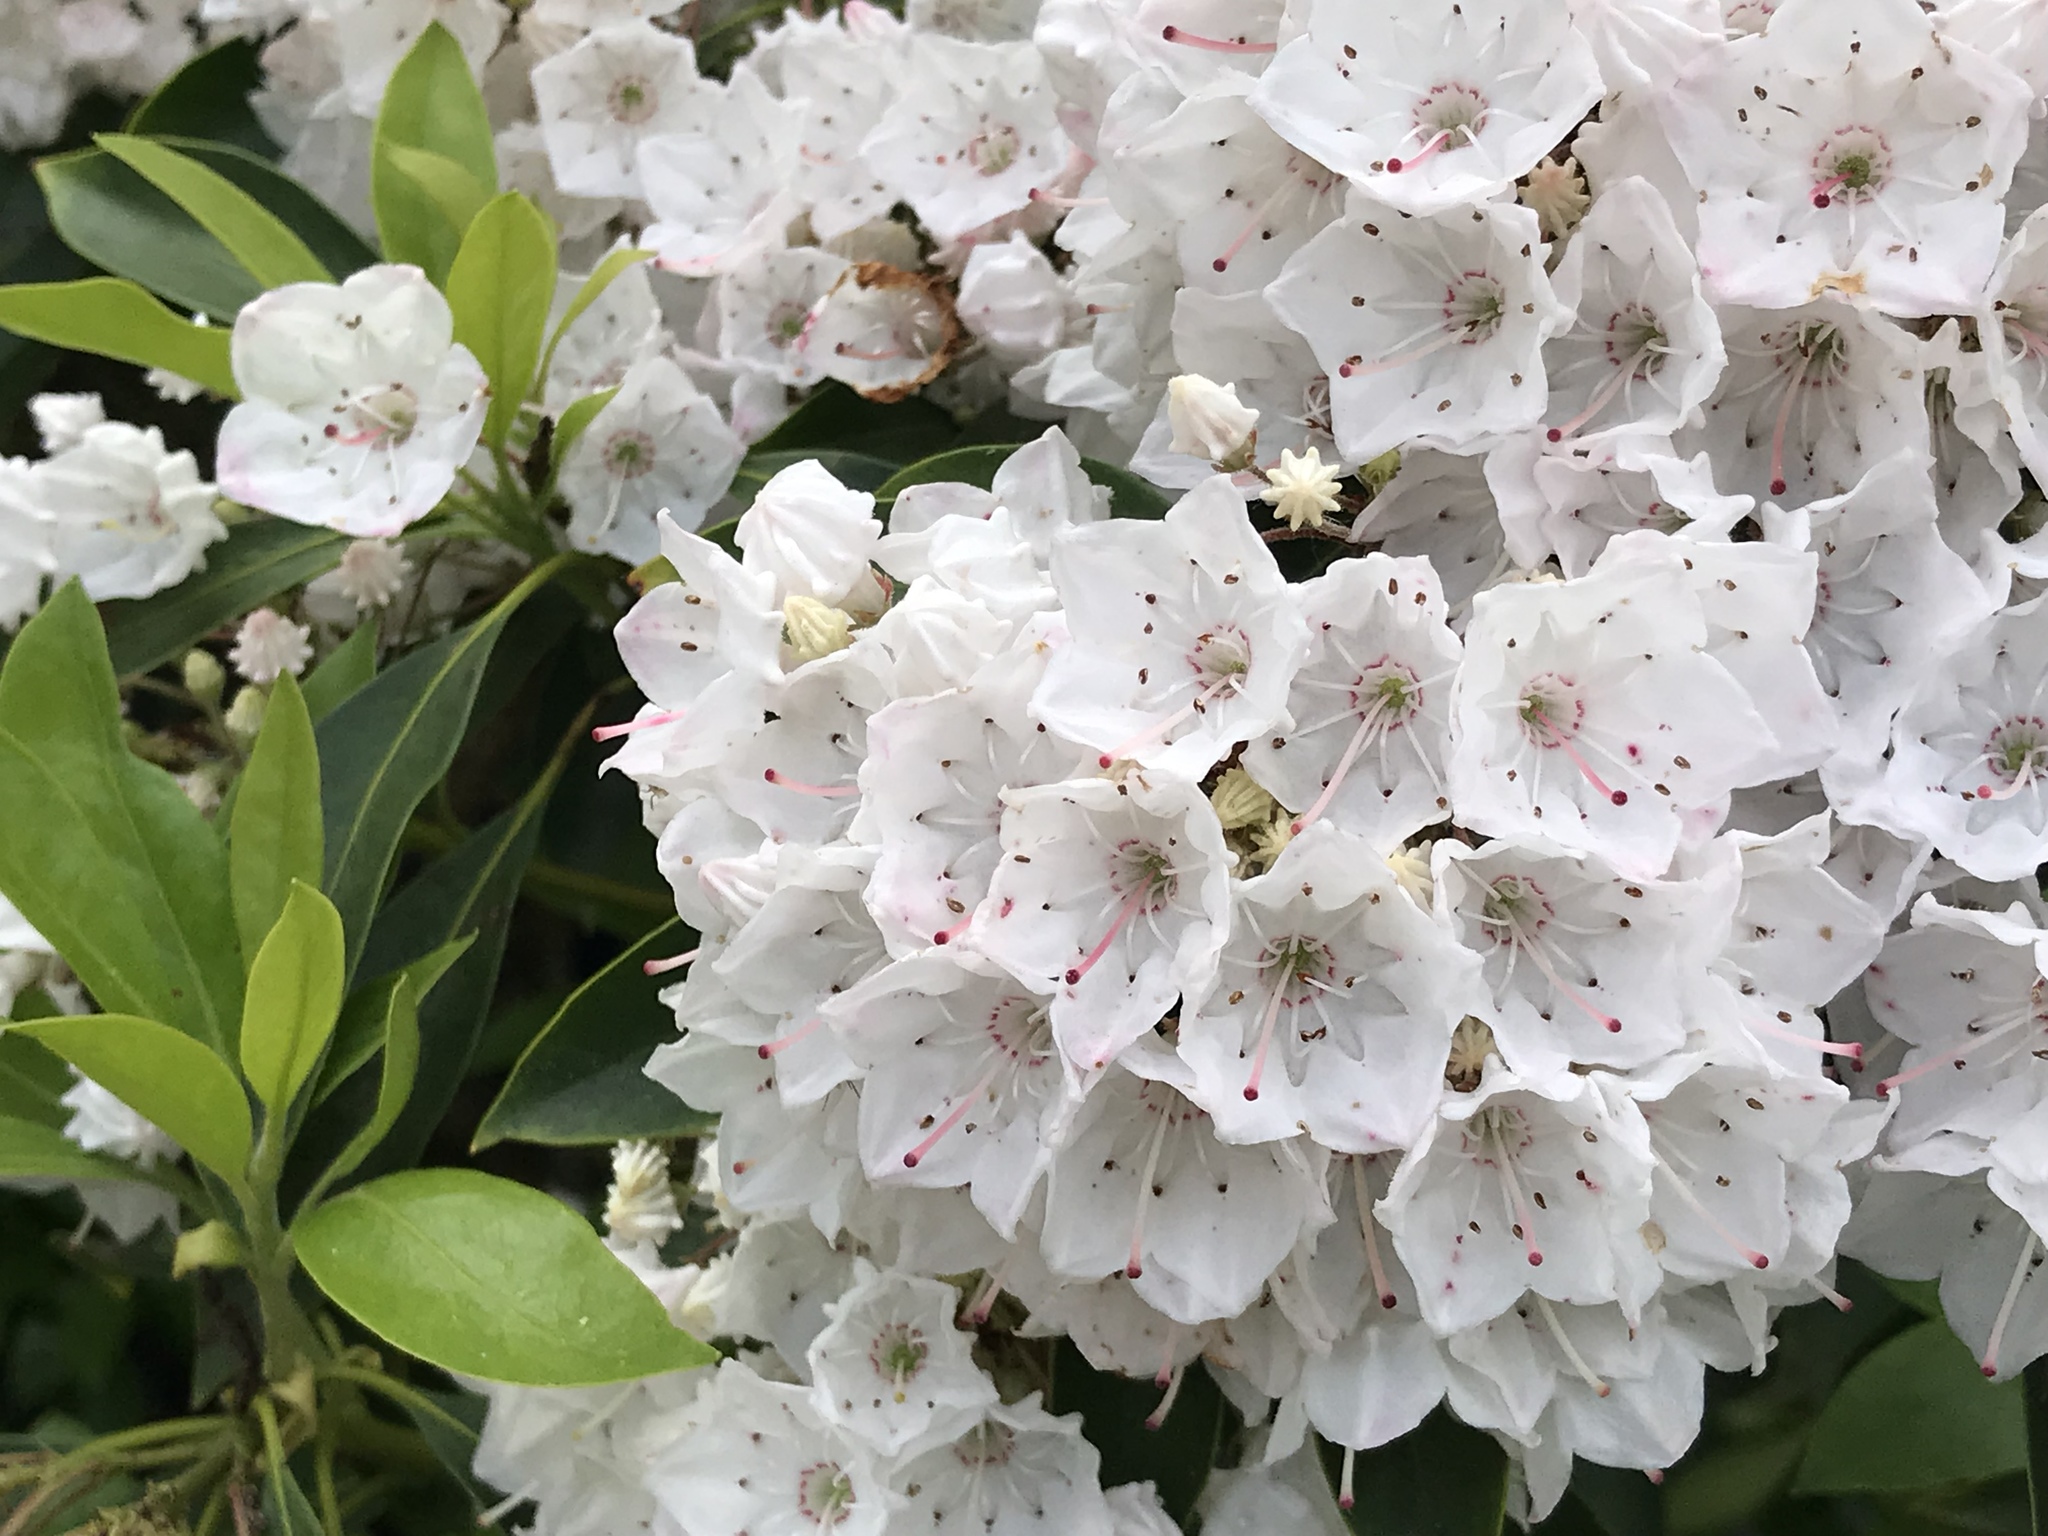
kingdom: Plantae
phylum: Tracheophyta
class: Magnoliopsida
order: Ericales
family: Ericaceae
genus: Kalmia
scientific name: Kalmia latifolia
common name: Mountain-laurel
